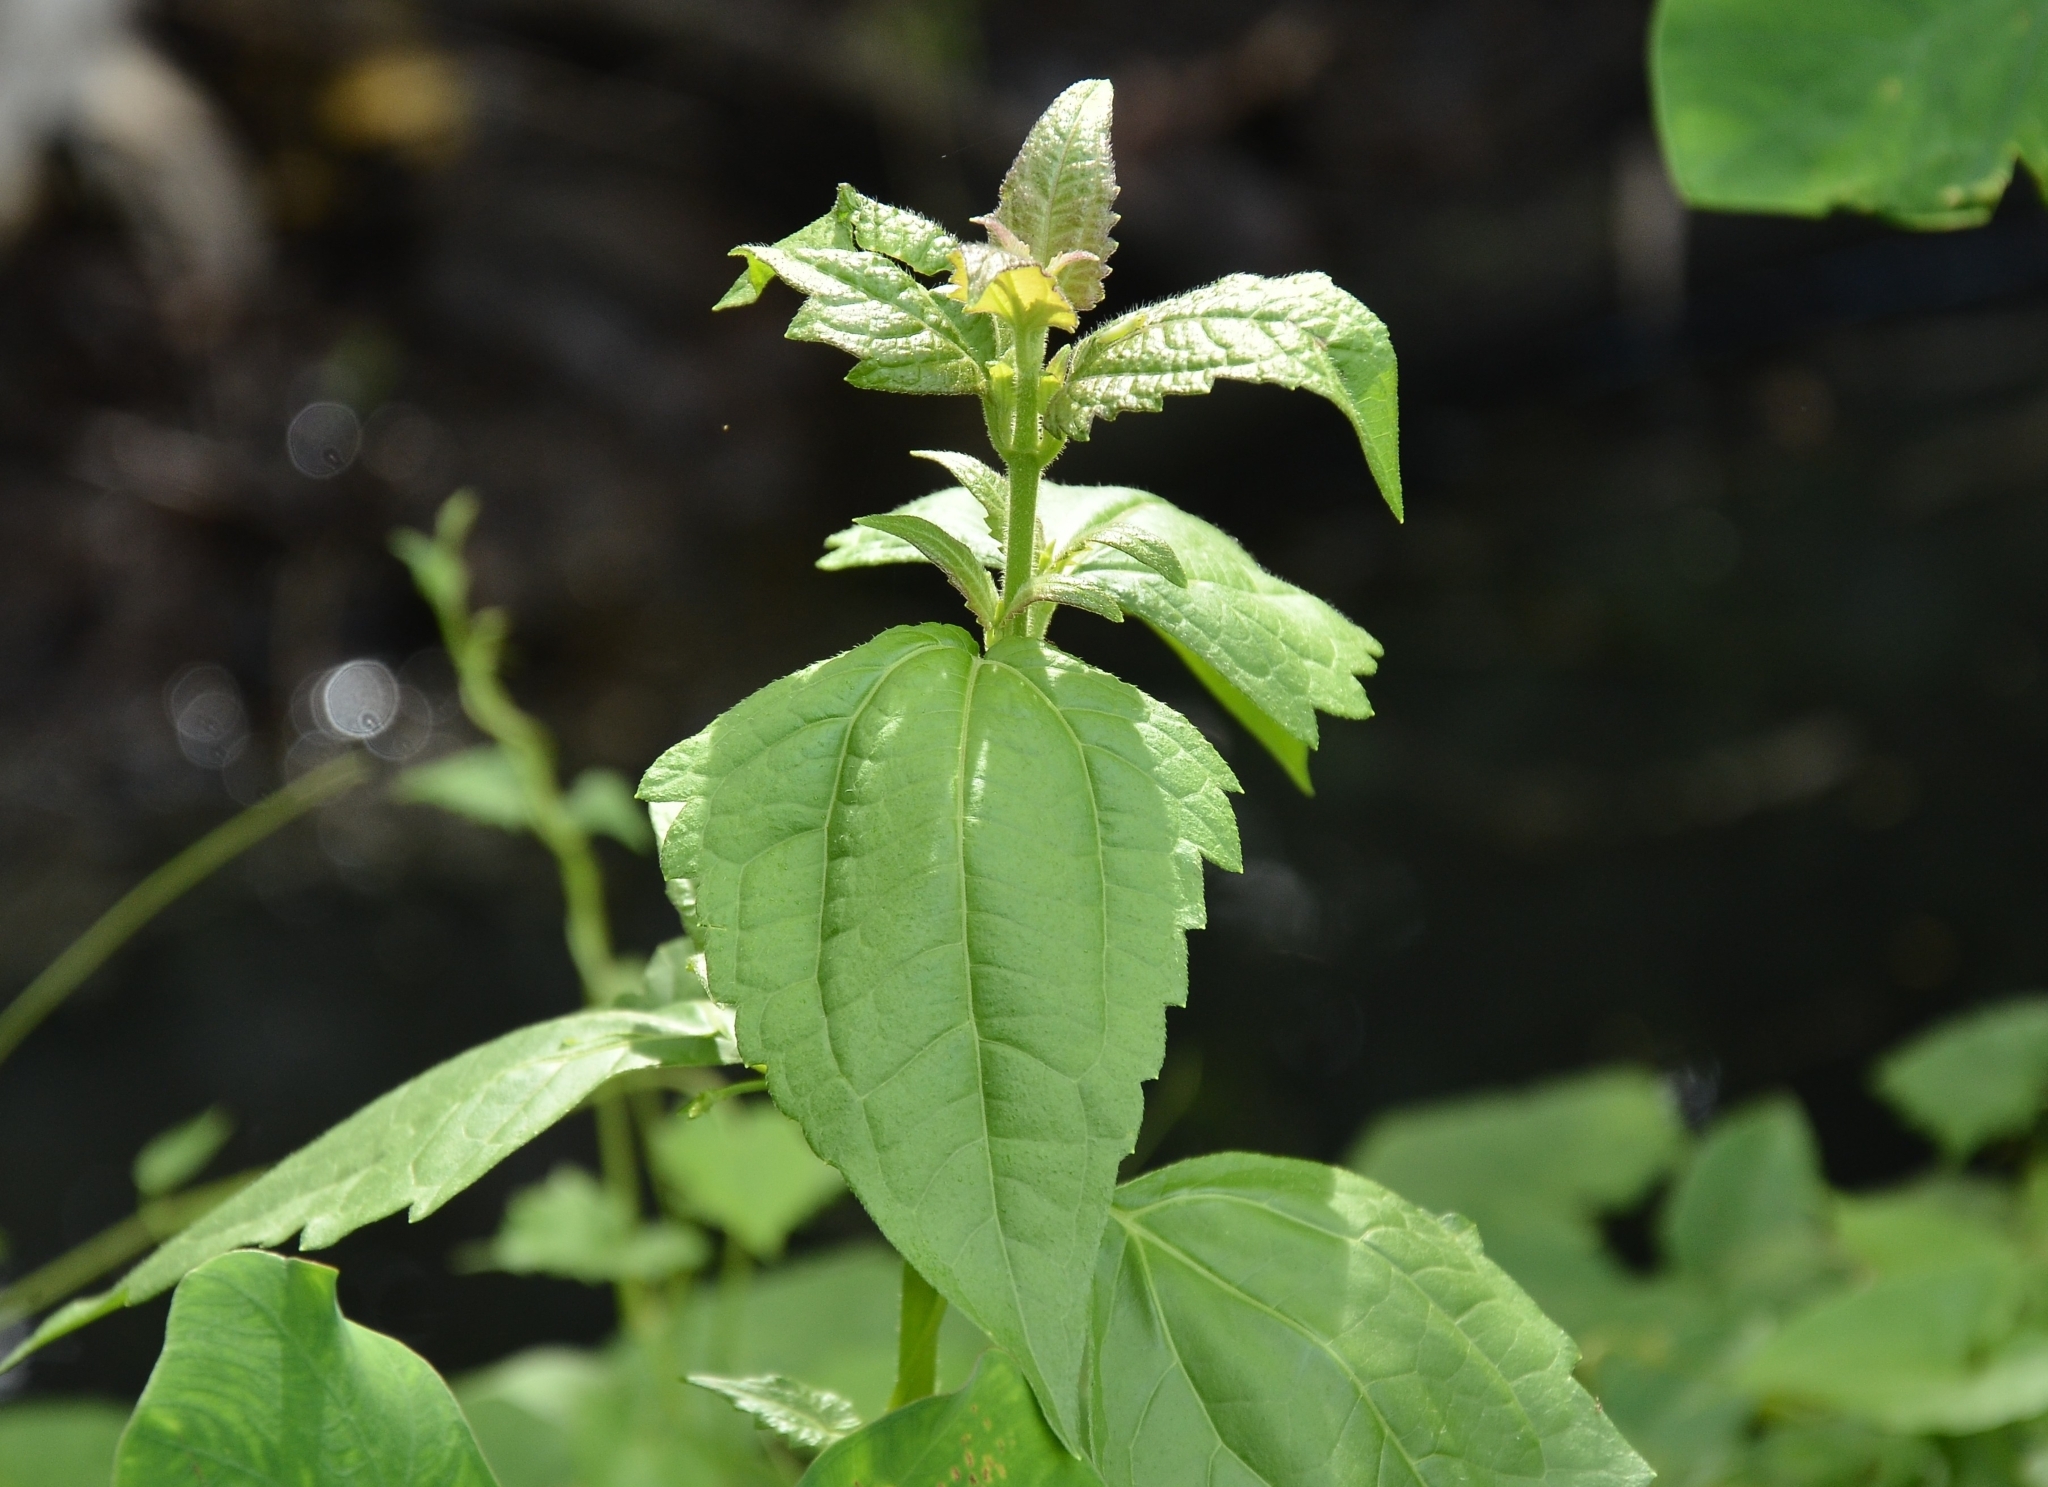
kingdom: Plantae
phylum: Tracheophyta
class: Magnoliopsida
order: Asterales
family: Asteraceae
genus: Chromolaena
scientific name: Chromolaena odorata
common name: Siamweed
